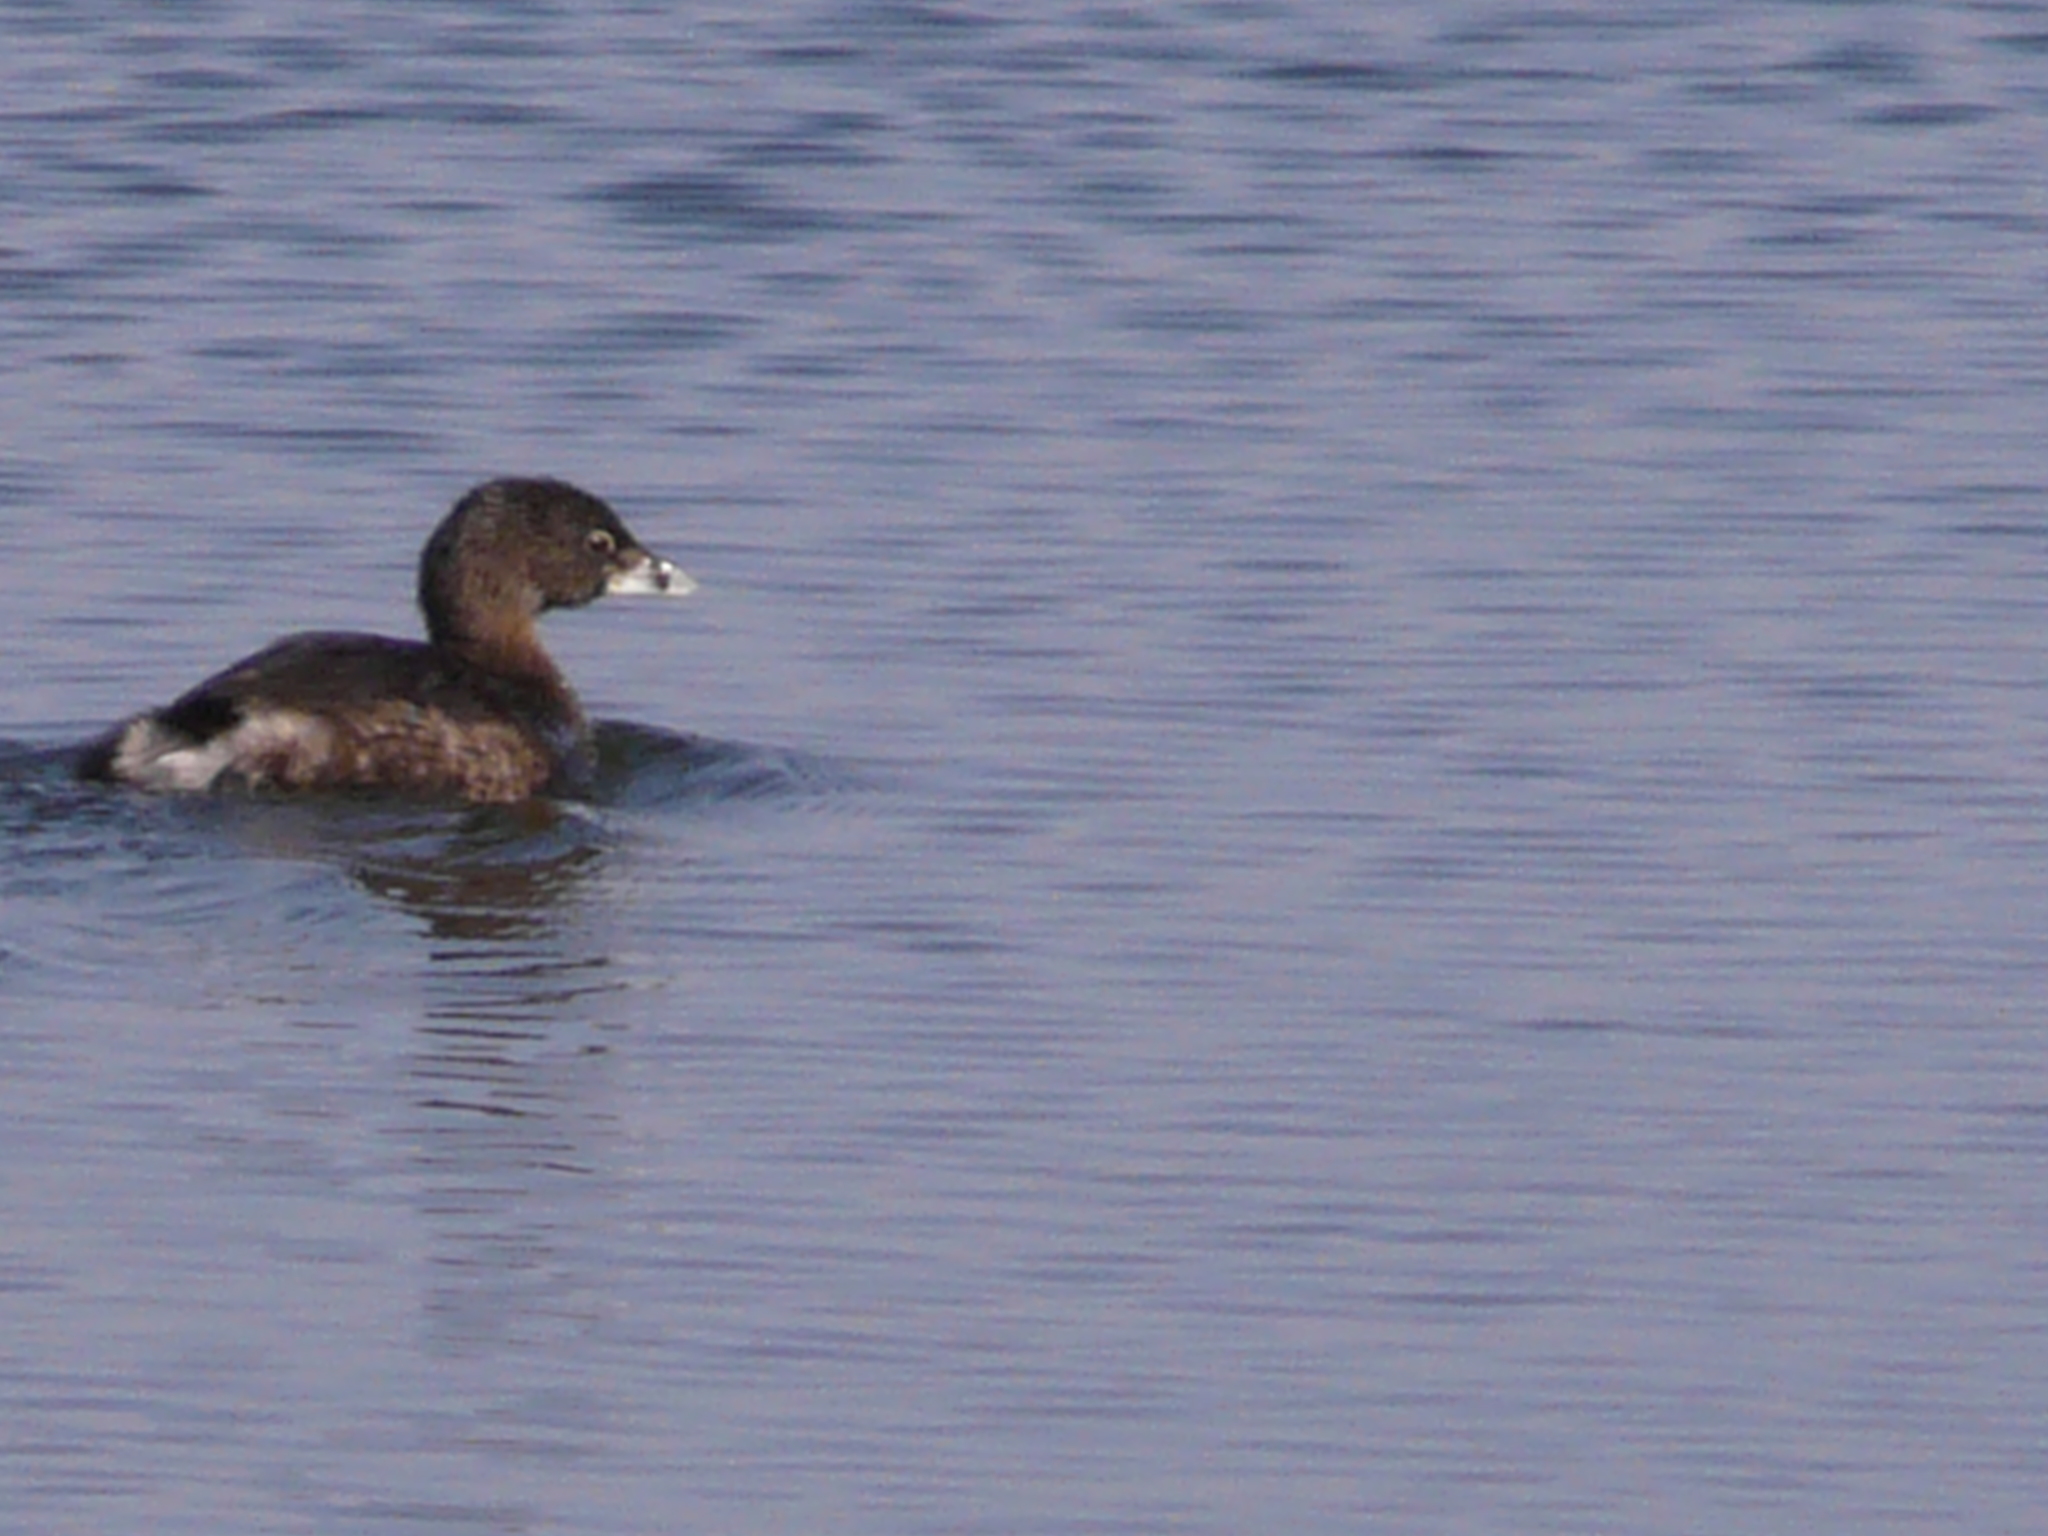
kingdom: Animalia
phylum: Chordata
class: Aves
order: Podicipediformes
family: Podicipedidae
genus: Podilymbus
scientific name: Podilymbus podiceps
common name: Pied-billed grebe
